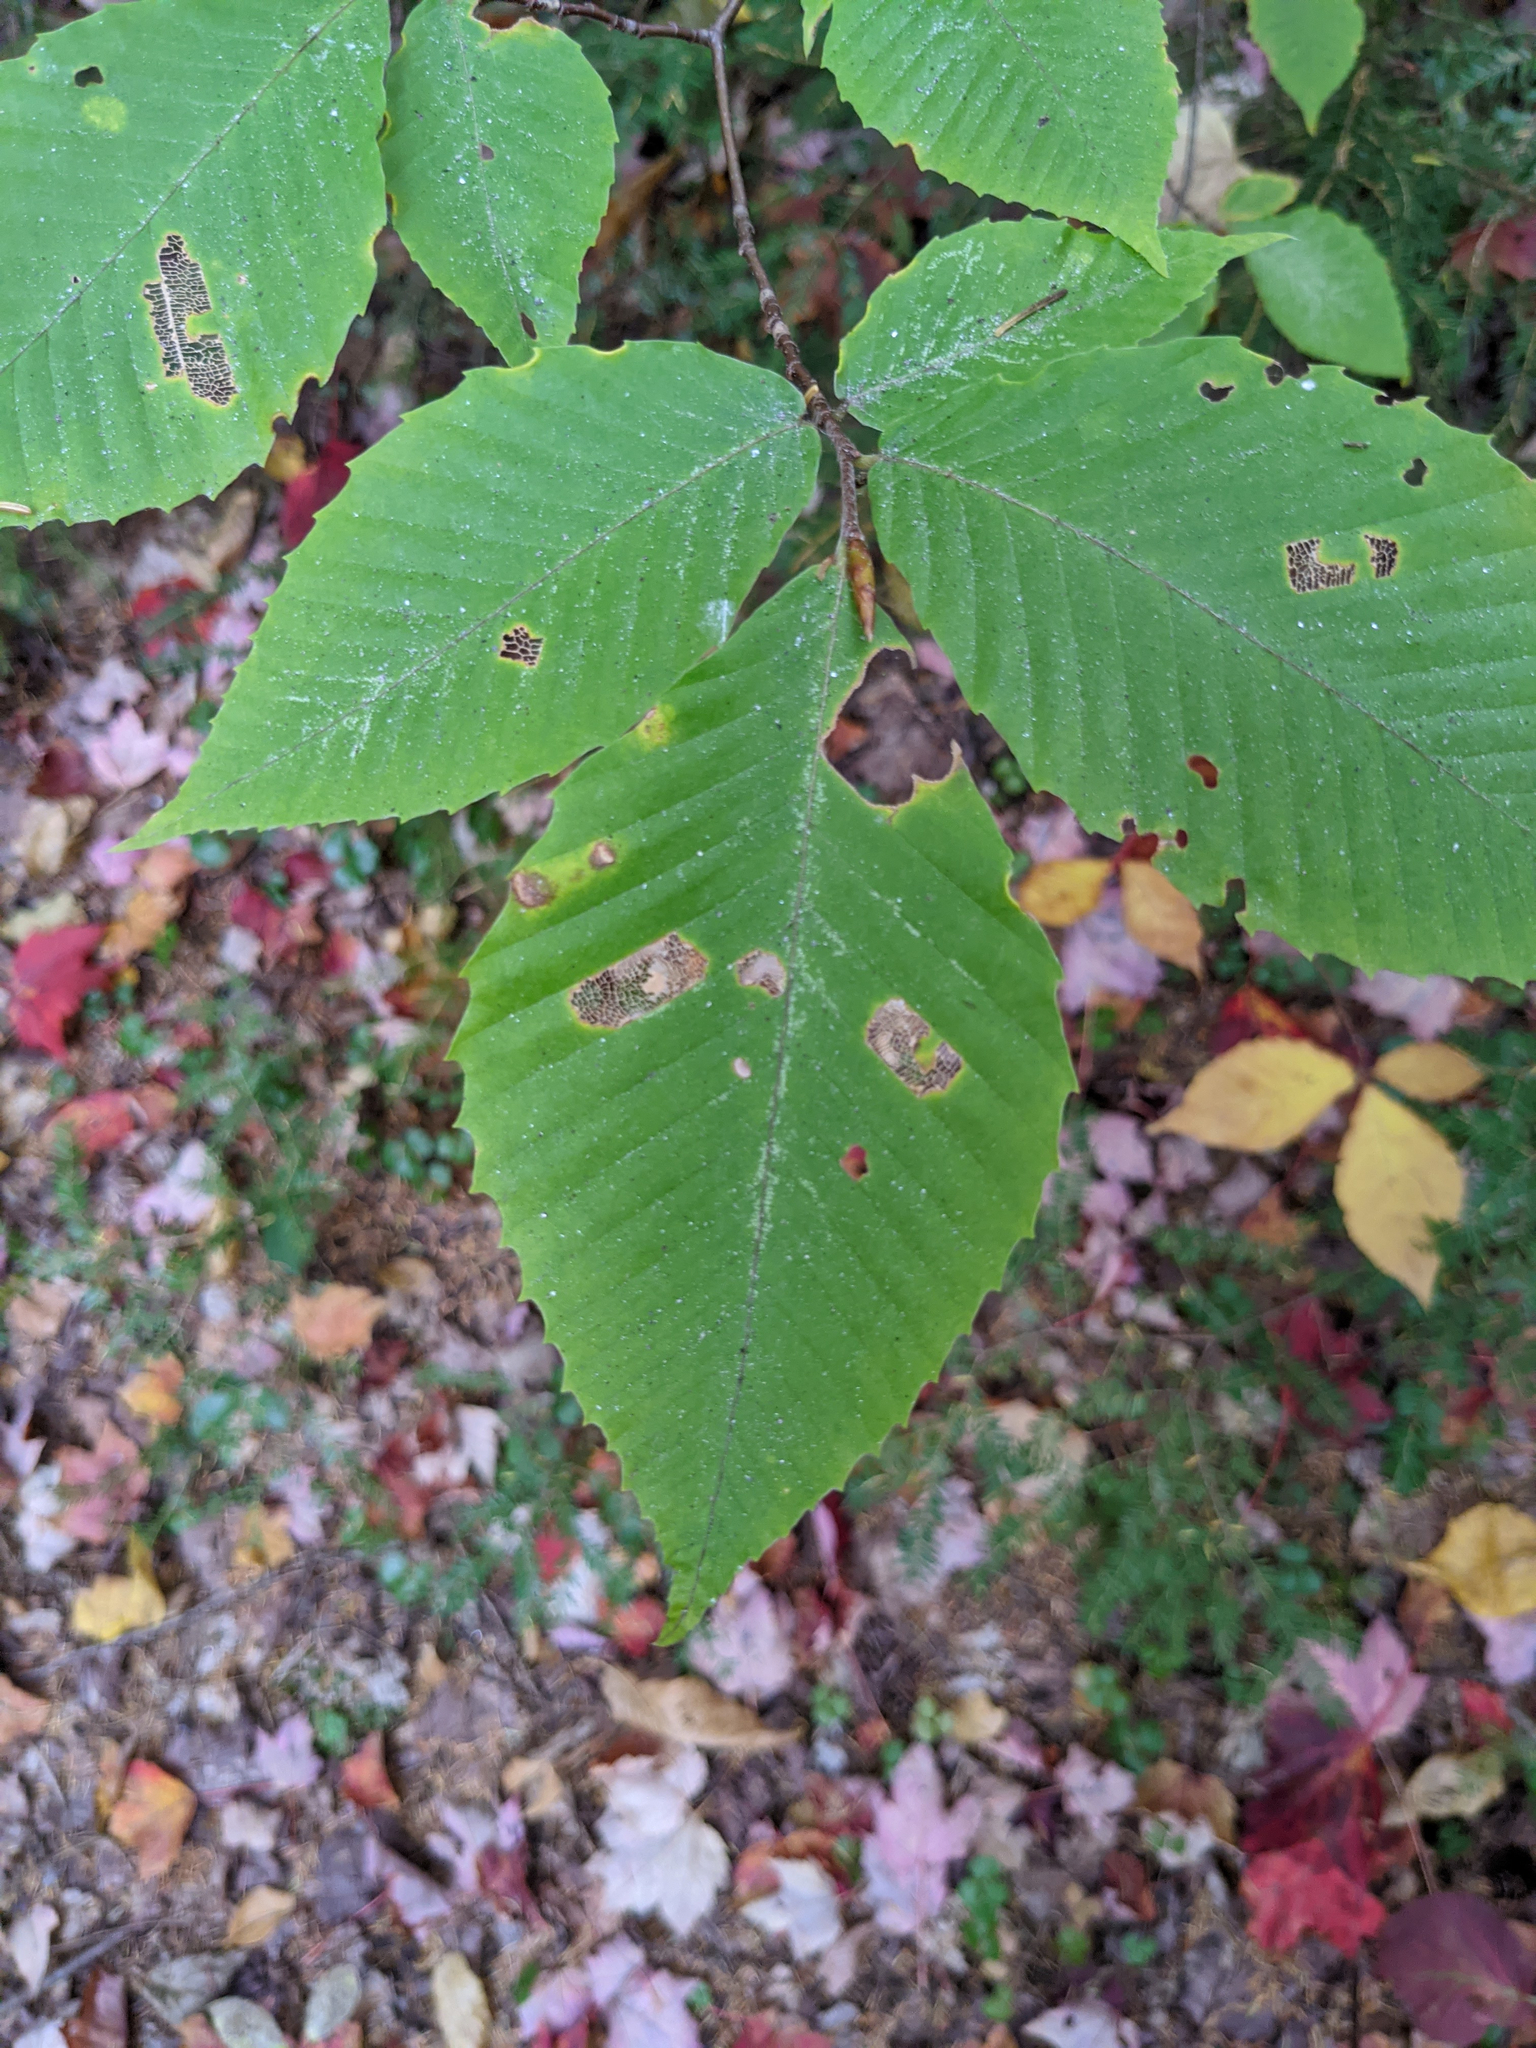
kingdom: Plantae
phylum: Tracheophyta
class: Magnoliopsida
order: Fagales
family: Fagaceae
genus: Fagus
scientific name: Fagus grandifolia
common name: American beech
